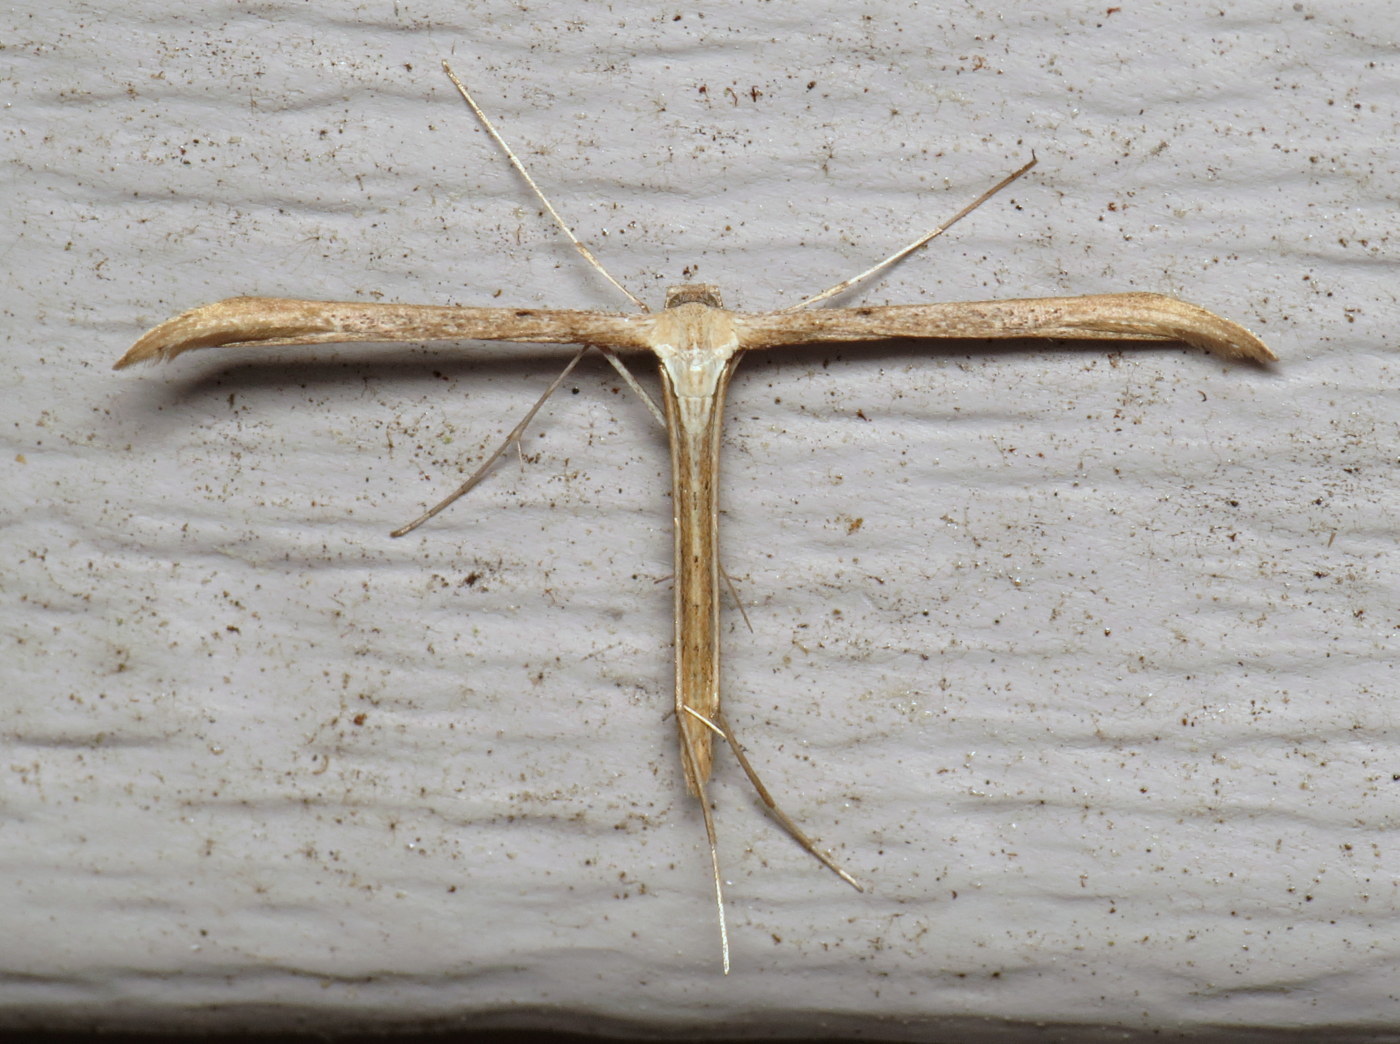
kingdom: Animalia
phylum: Arthropoda
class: Insecta
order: Lepidoptera
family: Pterophoridae
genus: Emmelina
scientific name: Emmelina monodactyla
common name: Common plume
